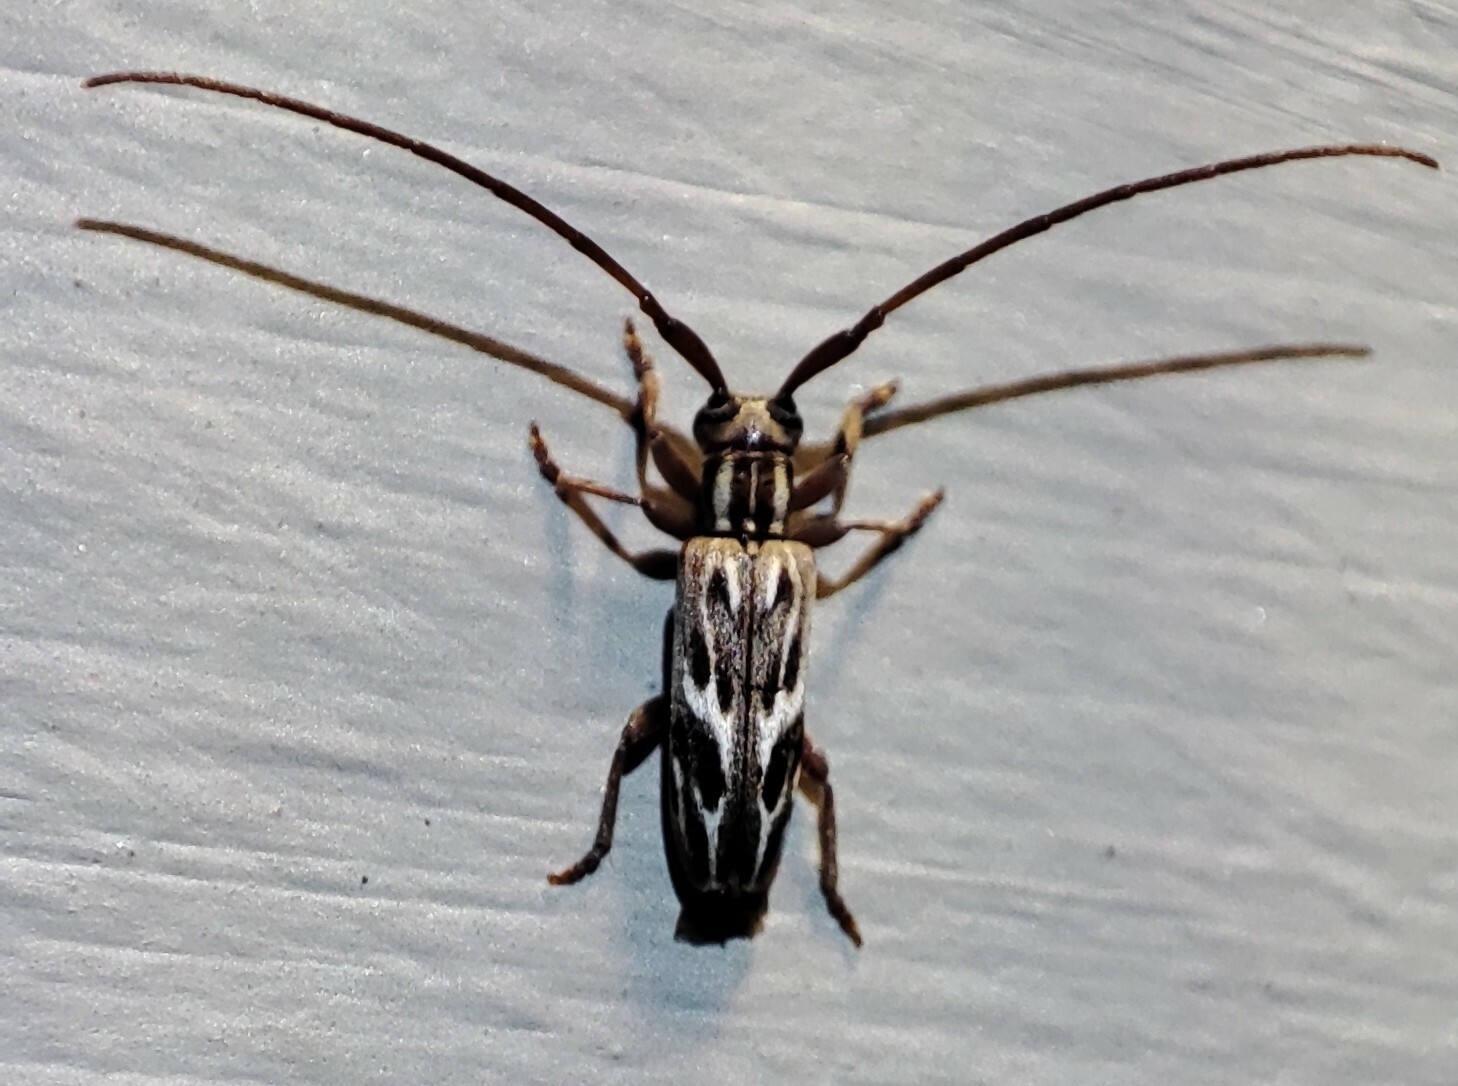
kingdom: Animalia
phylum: Arthropoda
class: Insecta
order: Coleoptera
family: Cerambycidae
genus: Eunidia
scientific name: Eunidia strigata
